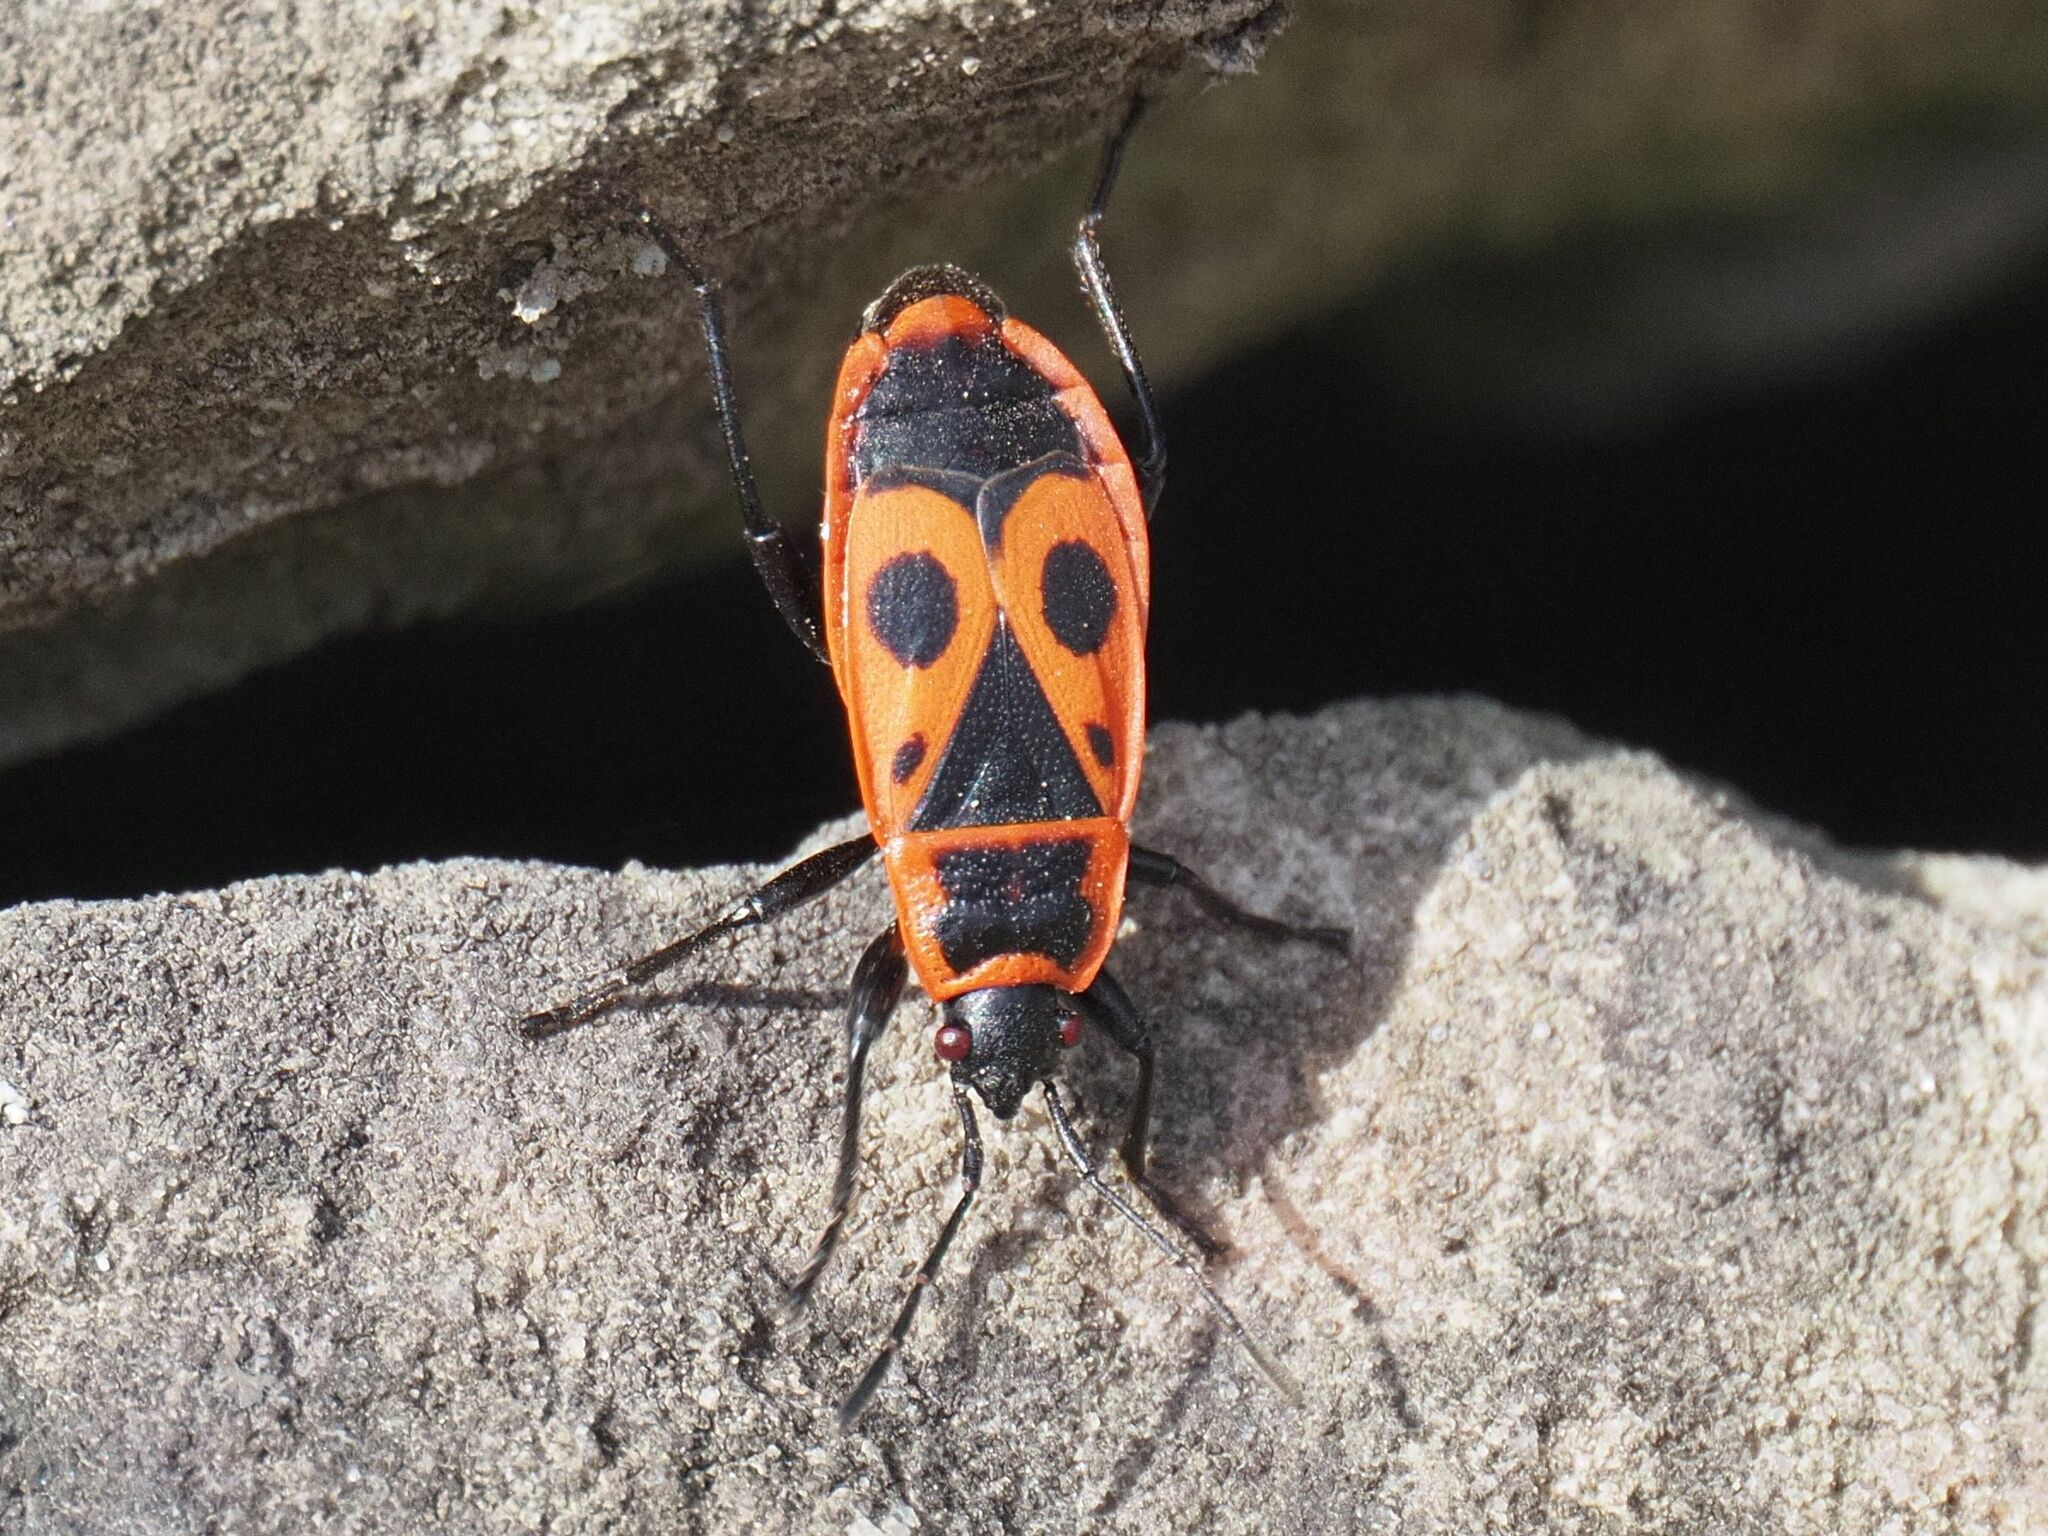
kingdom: Animalia
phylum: Arthropoda
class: Insecta
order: Hemiptera
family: Pyrrhocoridae
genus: Pyrrhocoris
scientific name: Pyrrhocoris apterus
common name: Firebug
